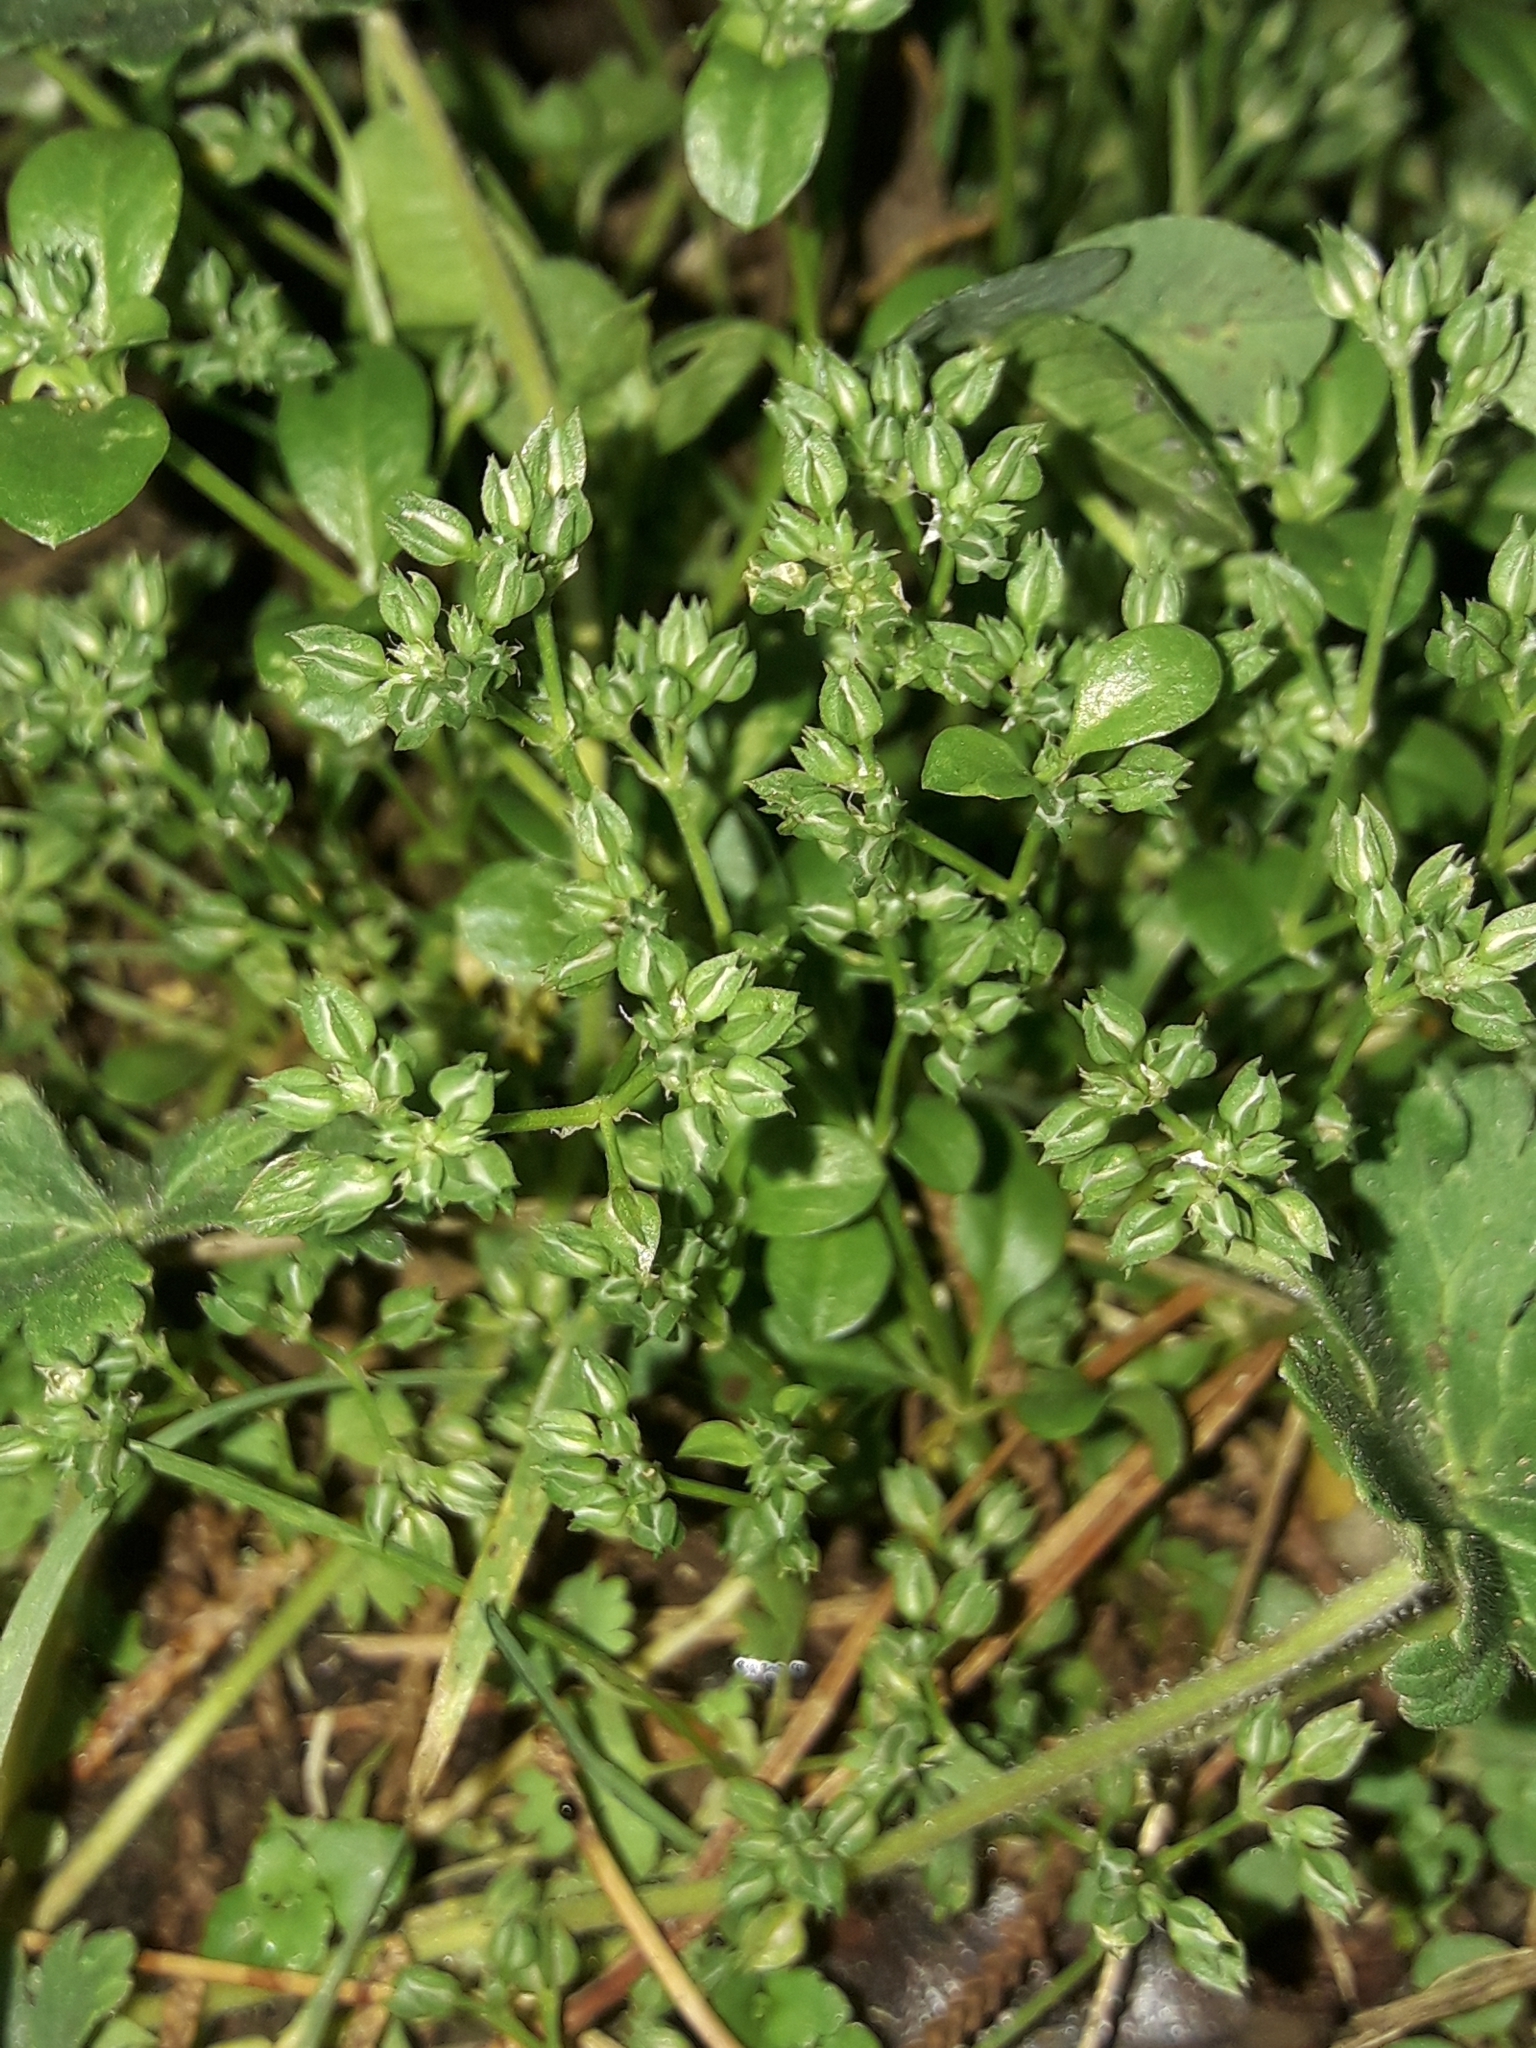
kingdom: Plantae
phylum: Tracheophyta
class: Magnoliopsida
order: Caryophyllales
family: Caryophyllaceae
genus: Polycarpon
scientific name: Polycarpon tetraphyllum
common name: Four-leaved all-seed
